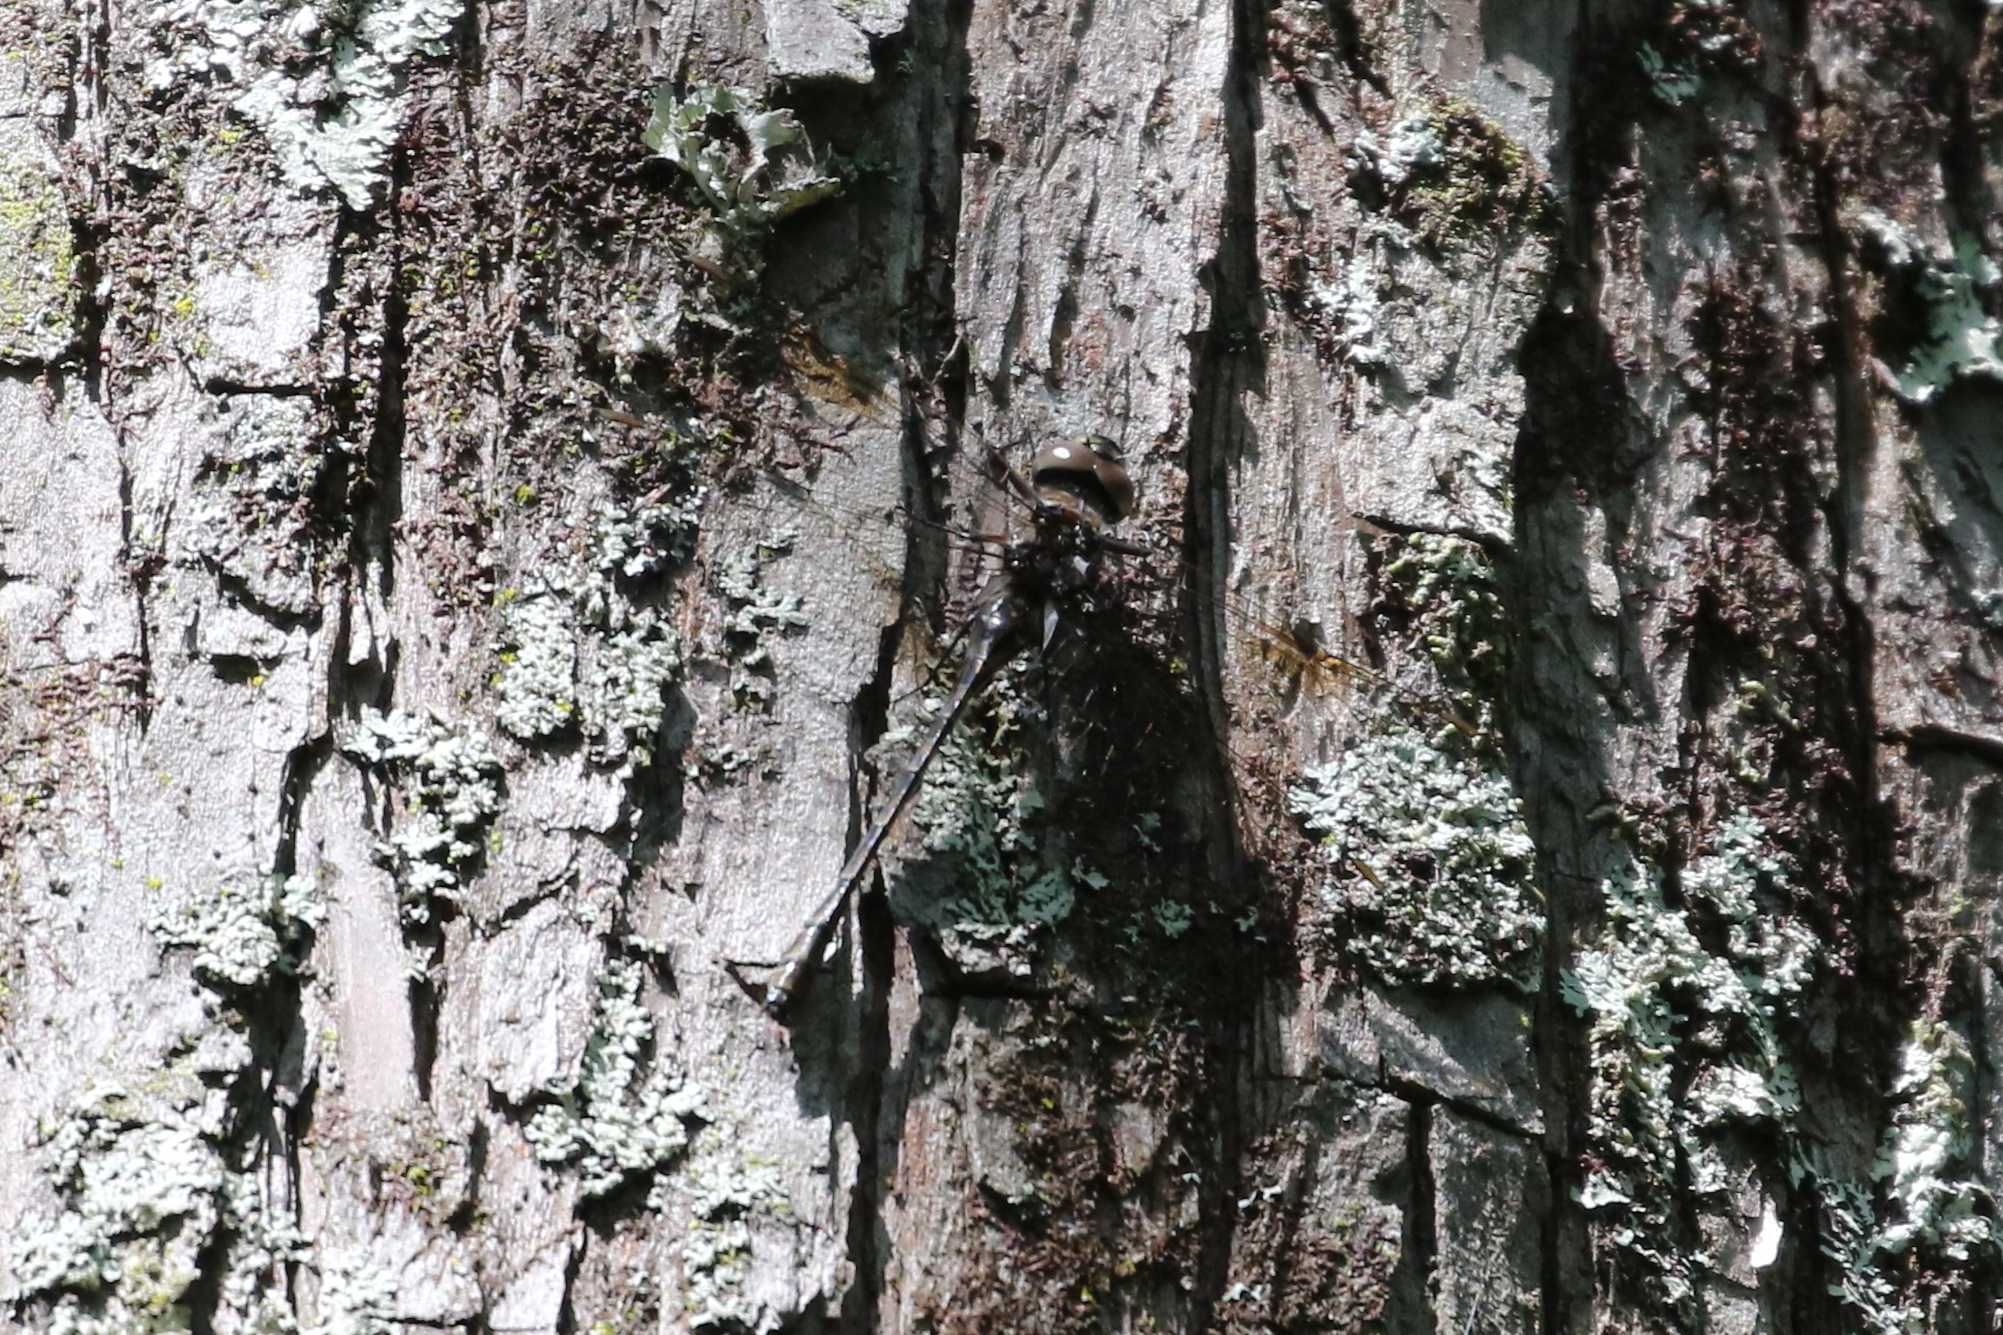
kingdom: Animalia
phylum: Arthropoda
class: Insecta
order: Odonata
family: Aeshnidae
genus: Gomphaeschna
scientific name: Gomphaeschna antilope
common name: Taper-tailed darner
